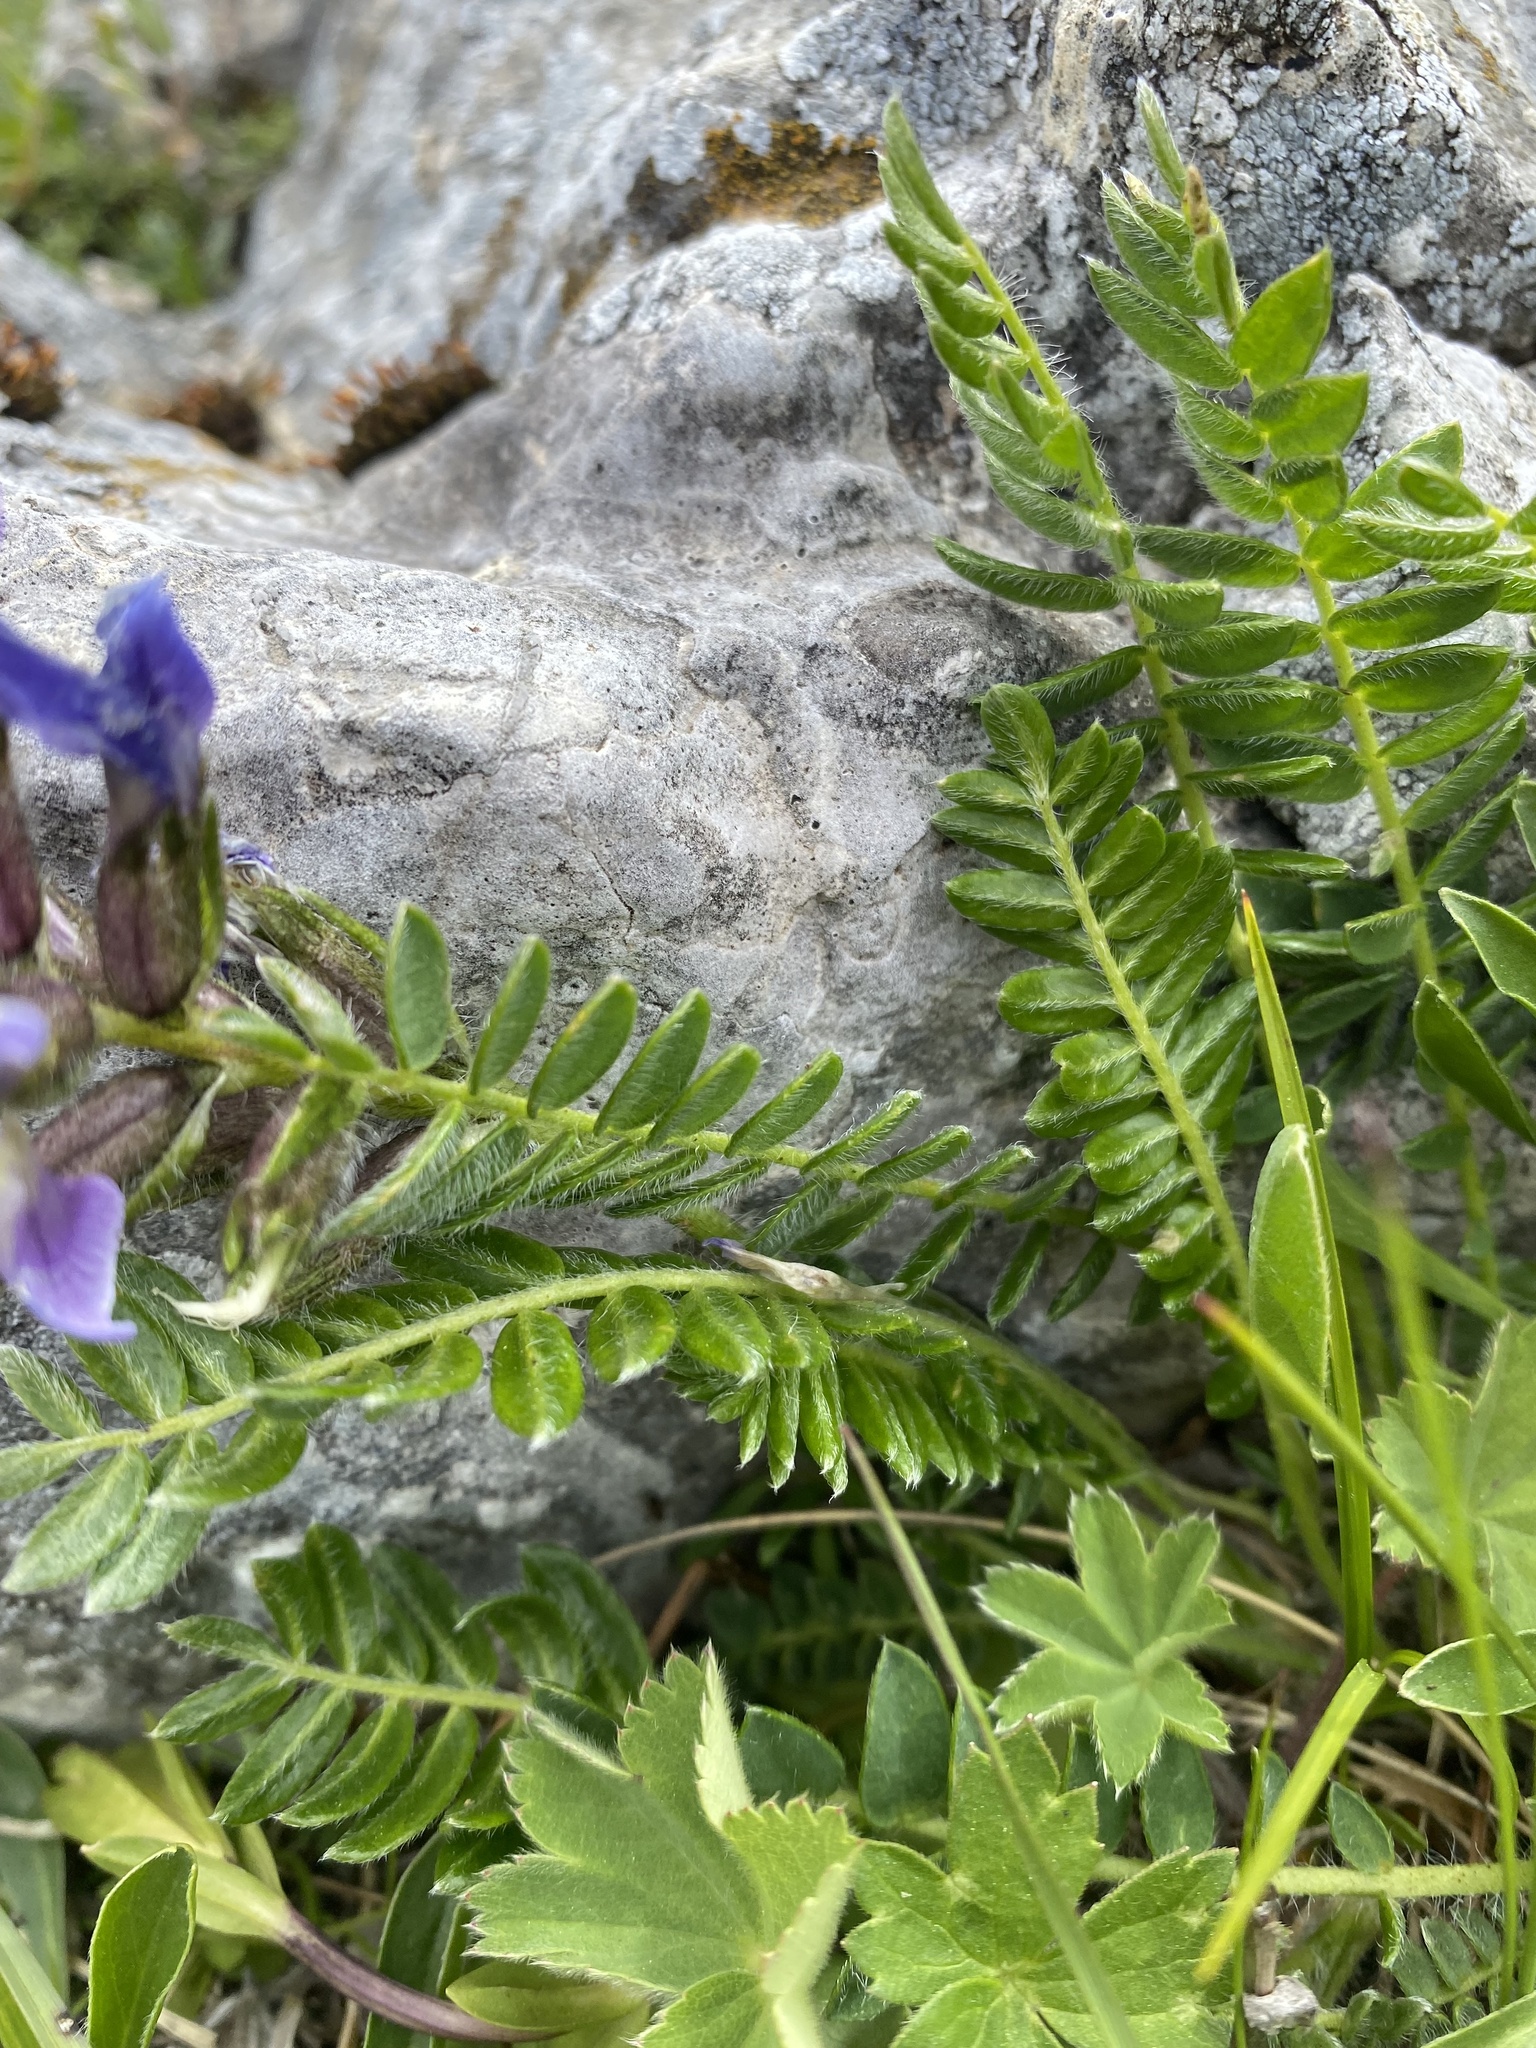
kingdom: Plantae
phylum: Tracheophyta
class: Magnoliopsida
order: Fabales
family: Fabaceae
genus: Oxytropis
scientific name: Oxytropis lazica
